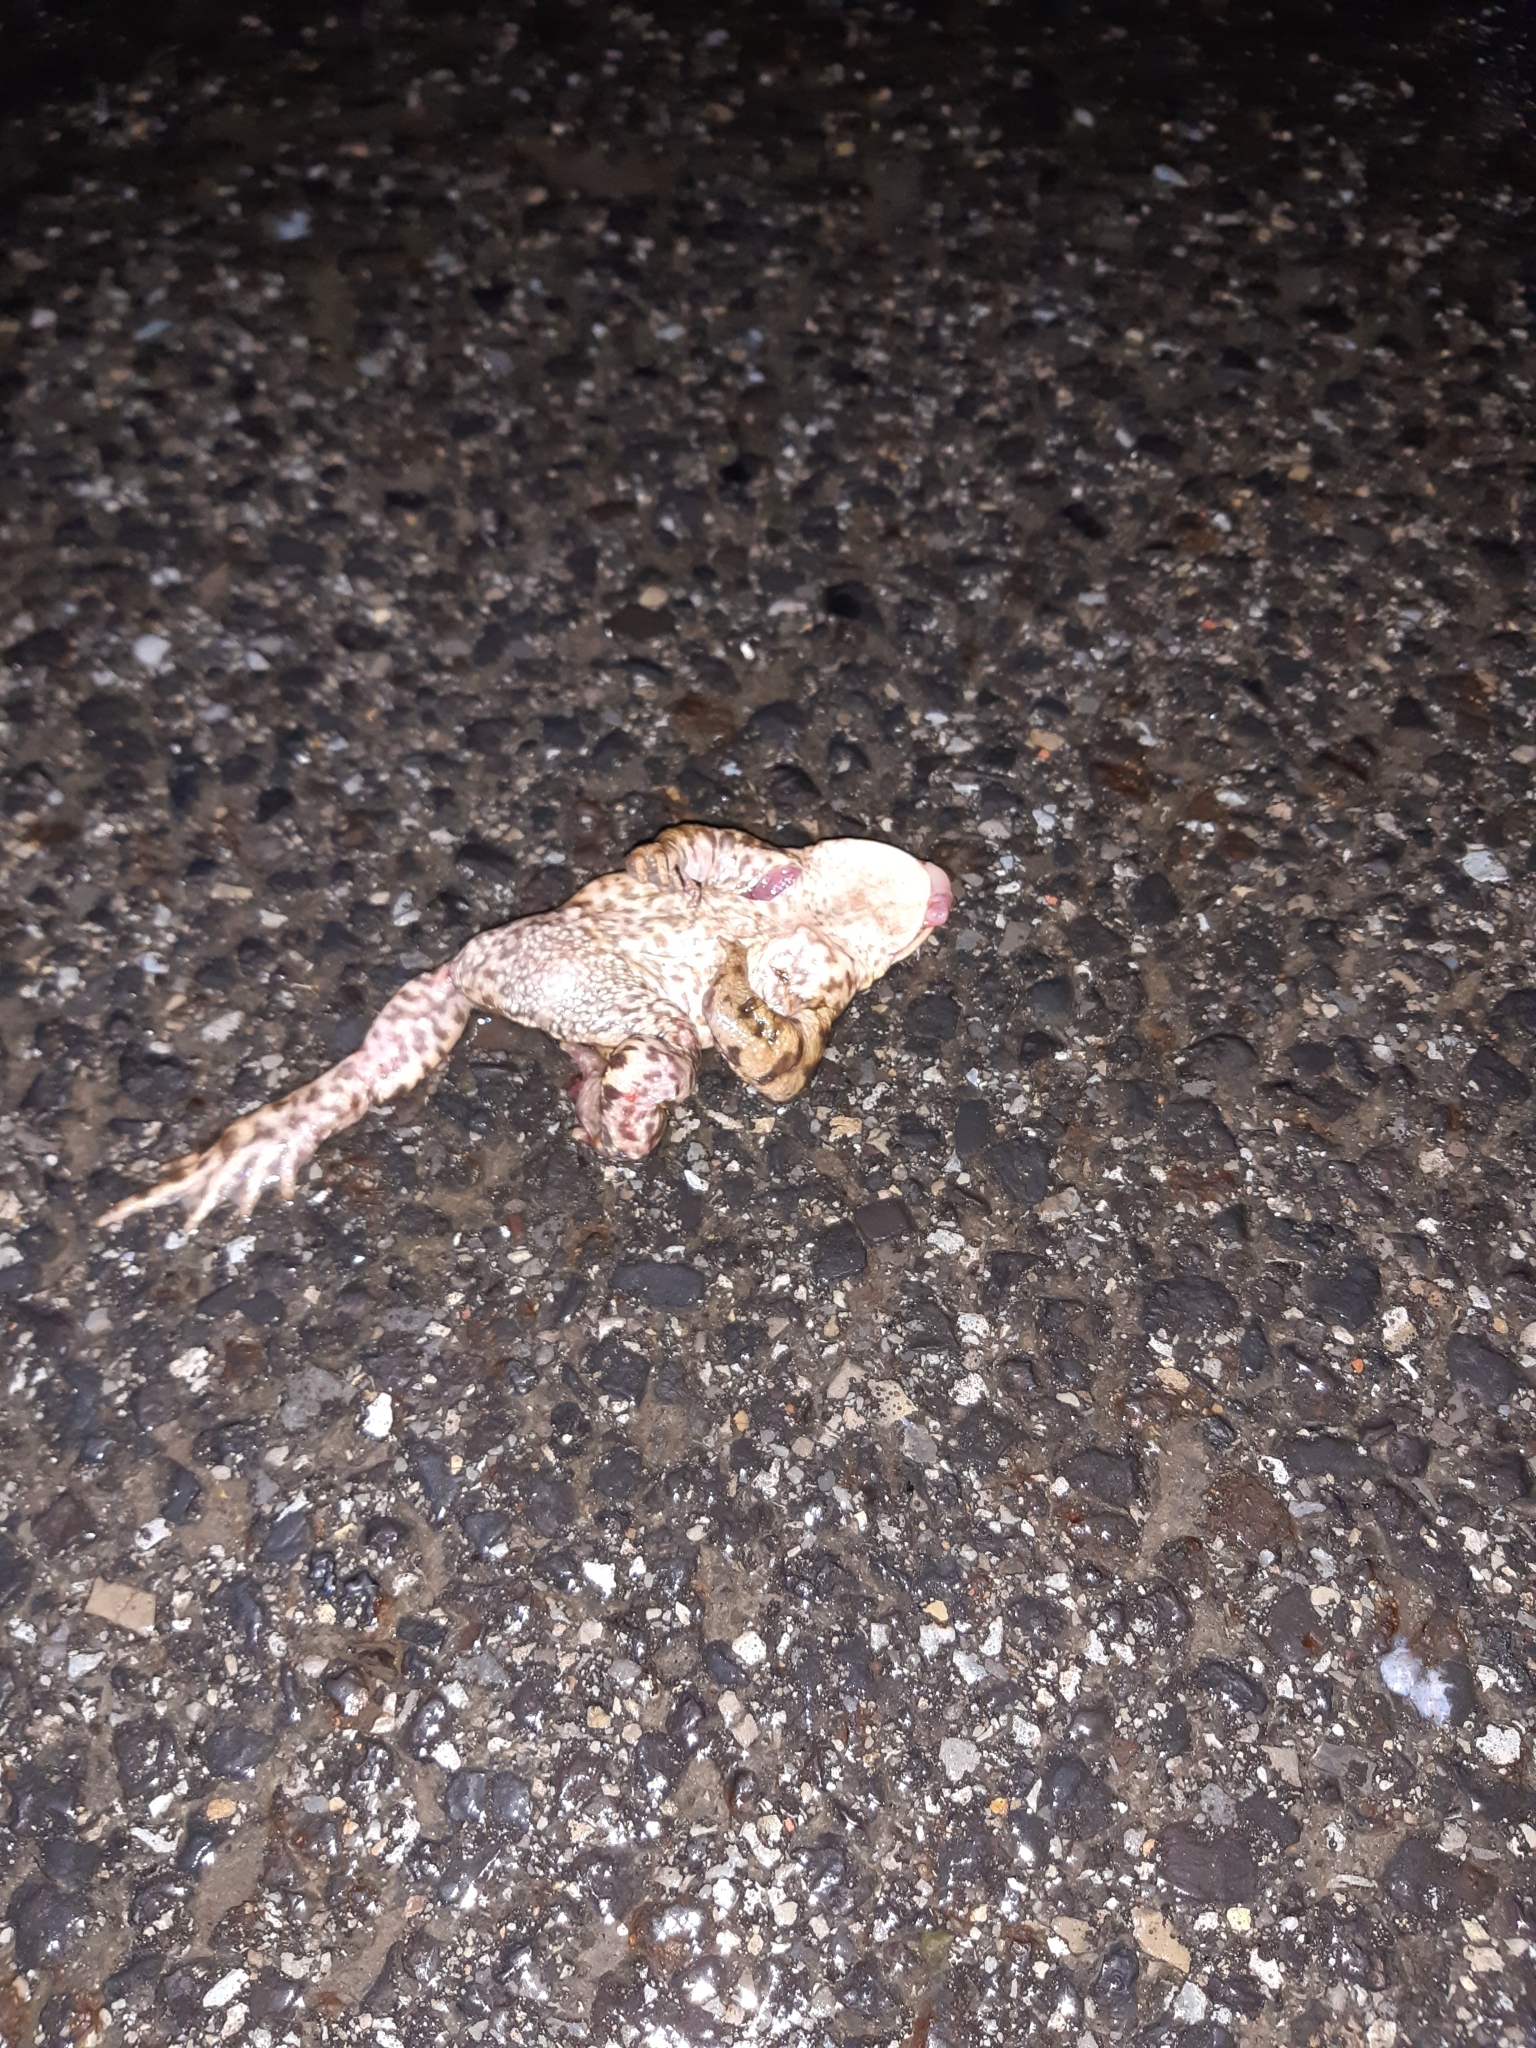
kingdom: Animalia
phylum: Chordata
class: Amphibia
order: Anura
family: Bufonidae
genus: Bufo
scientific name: Bufo bufo
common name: Common toad
